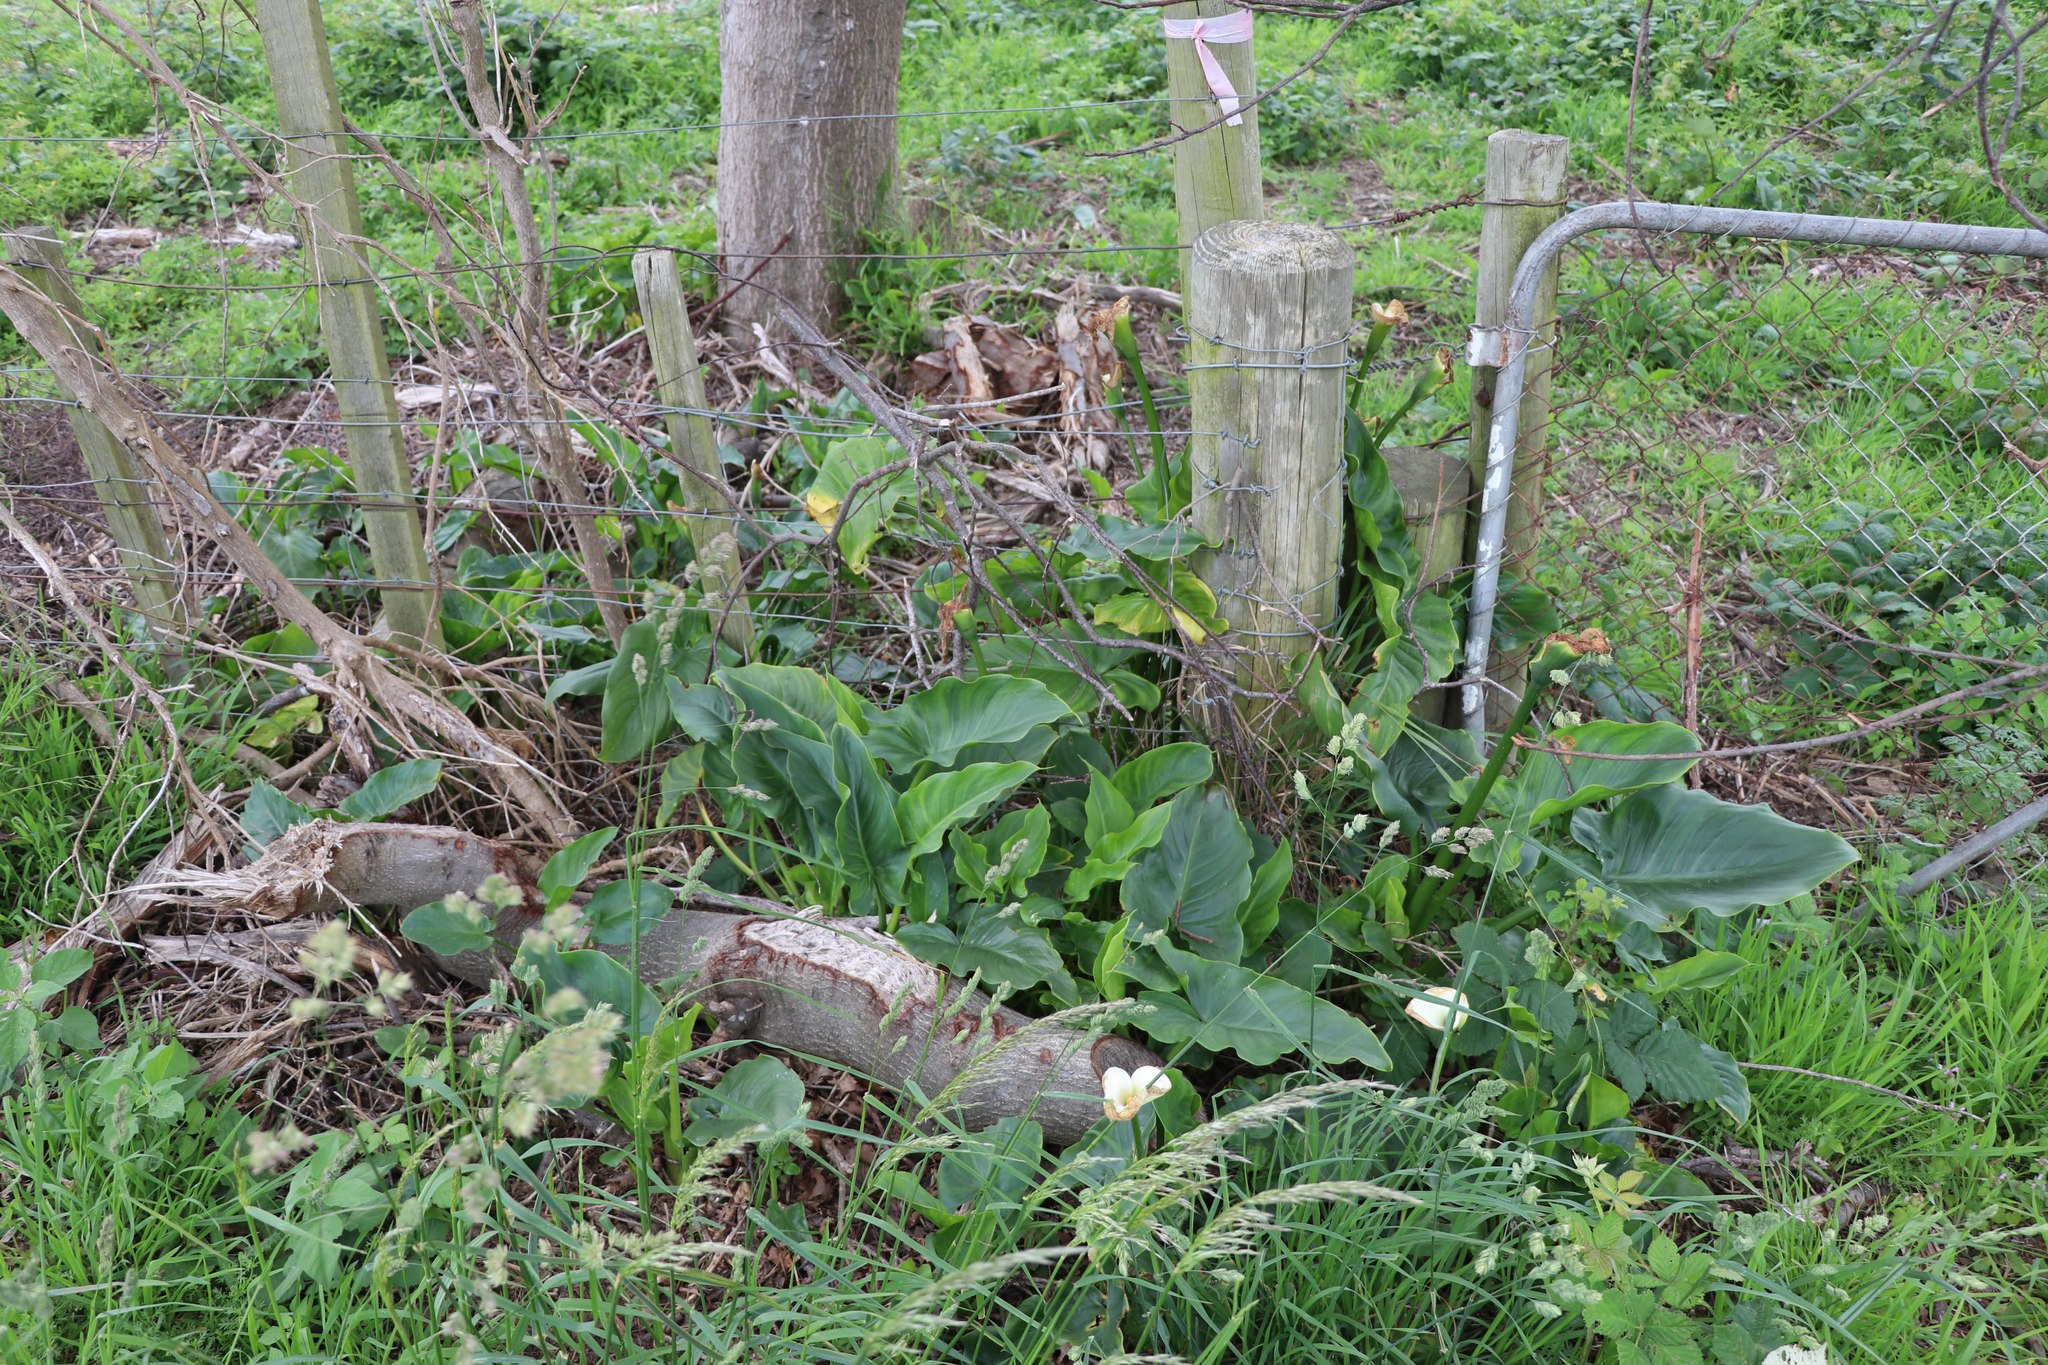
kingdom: Plantae
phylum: Tracheophyta
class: Liliopsida
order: Alismatales
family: Araceae
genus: Zantedeschia
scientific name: Zantedeschia aethiopica
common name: Altar-lily
